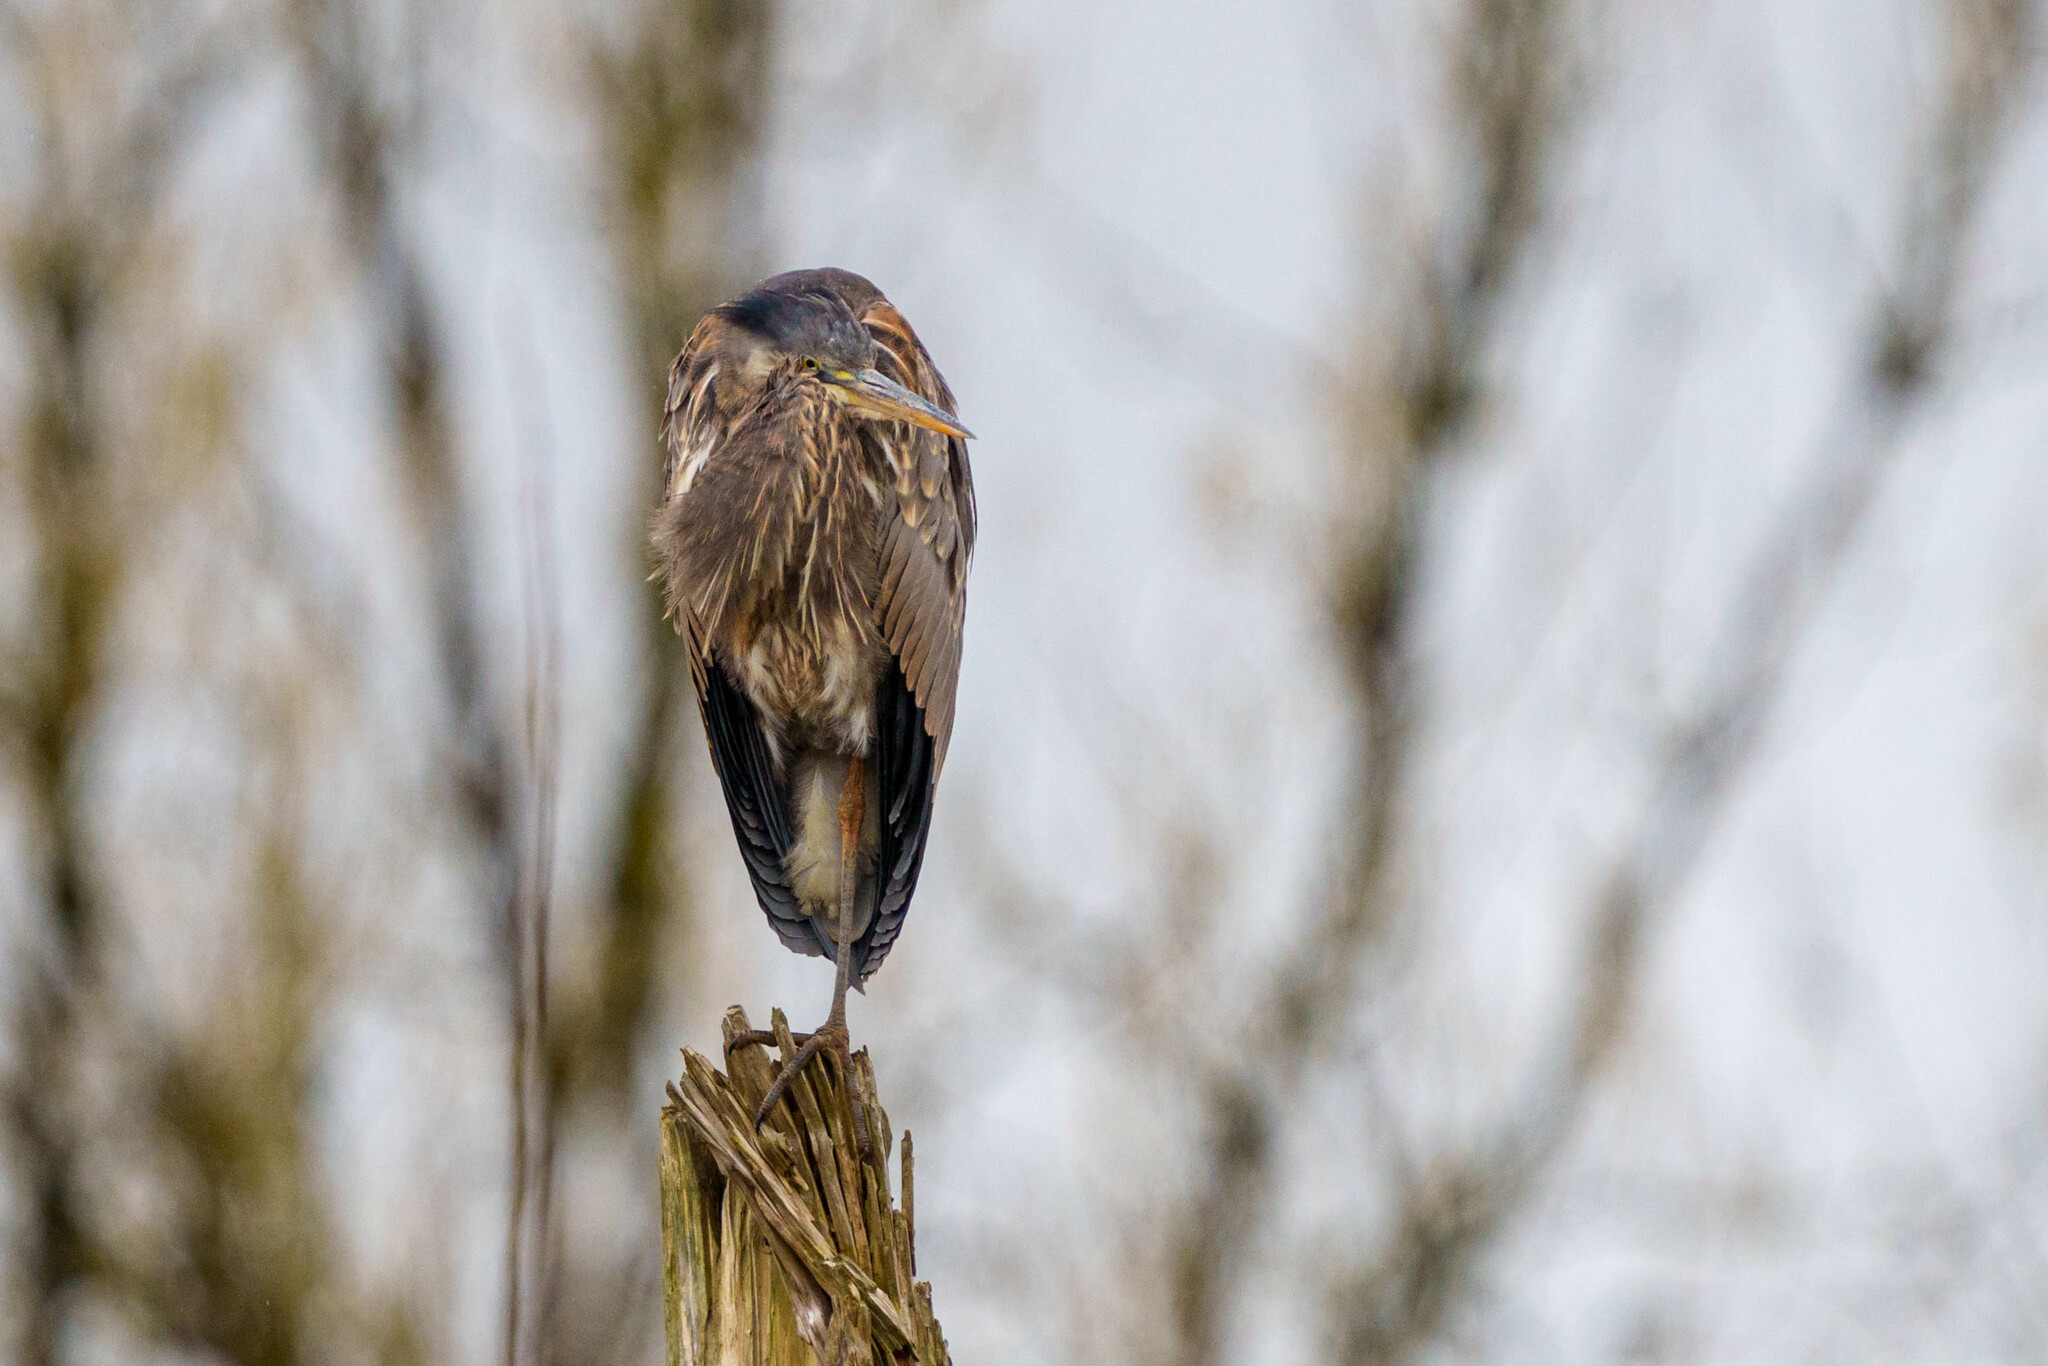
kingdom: Animalia
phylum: Chordata
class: Aves
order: Pelecaniformes
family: Ardeidae
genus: Ardea
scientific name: Ardea herodias
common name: Great blue heron
